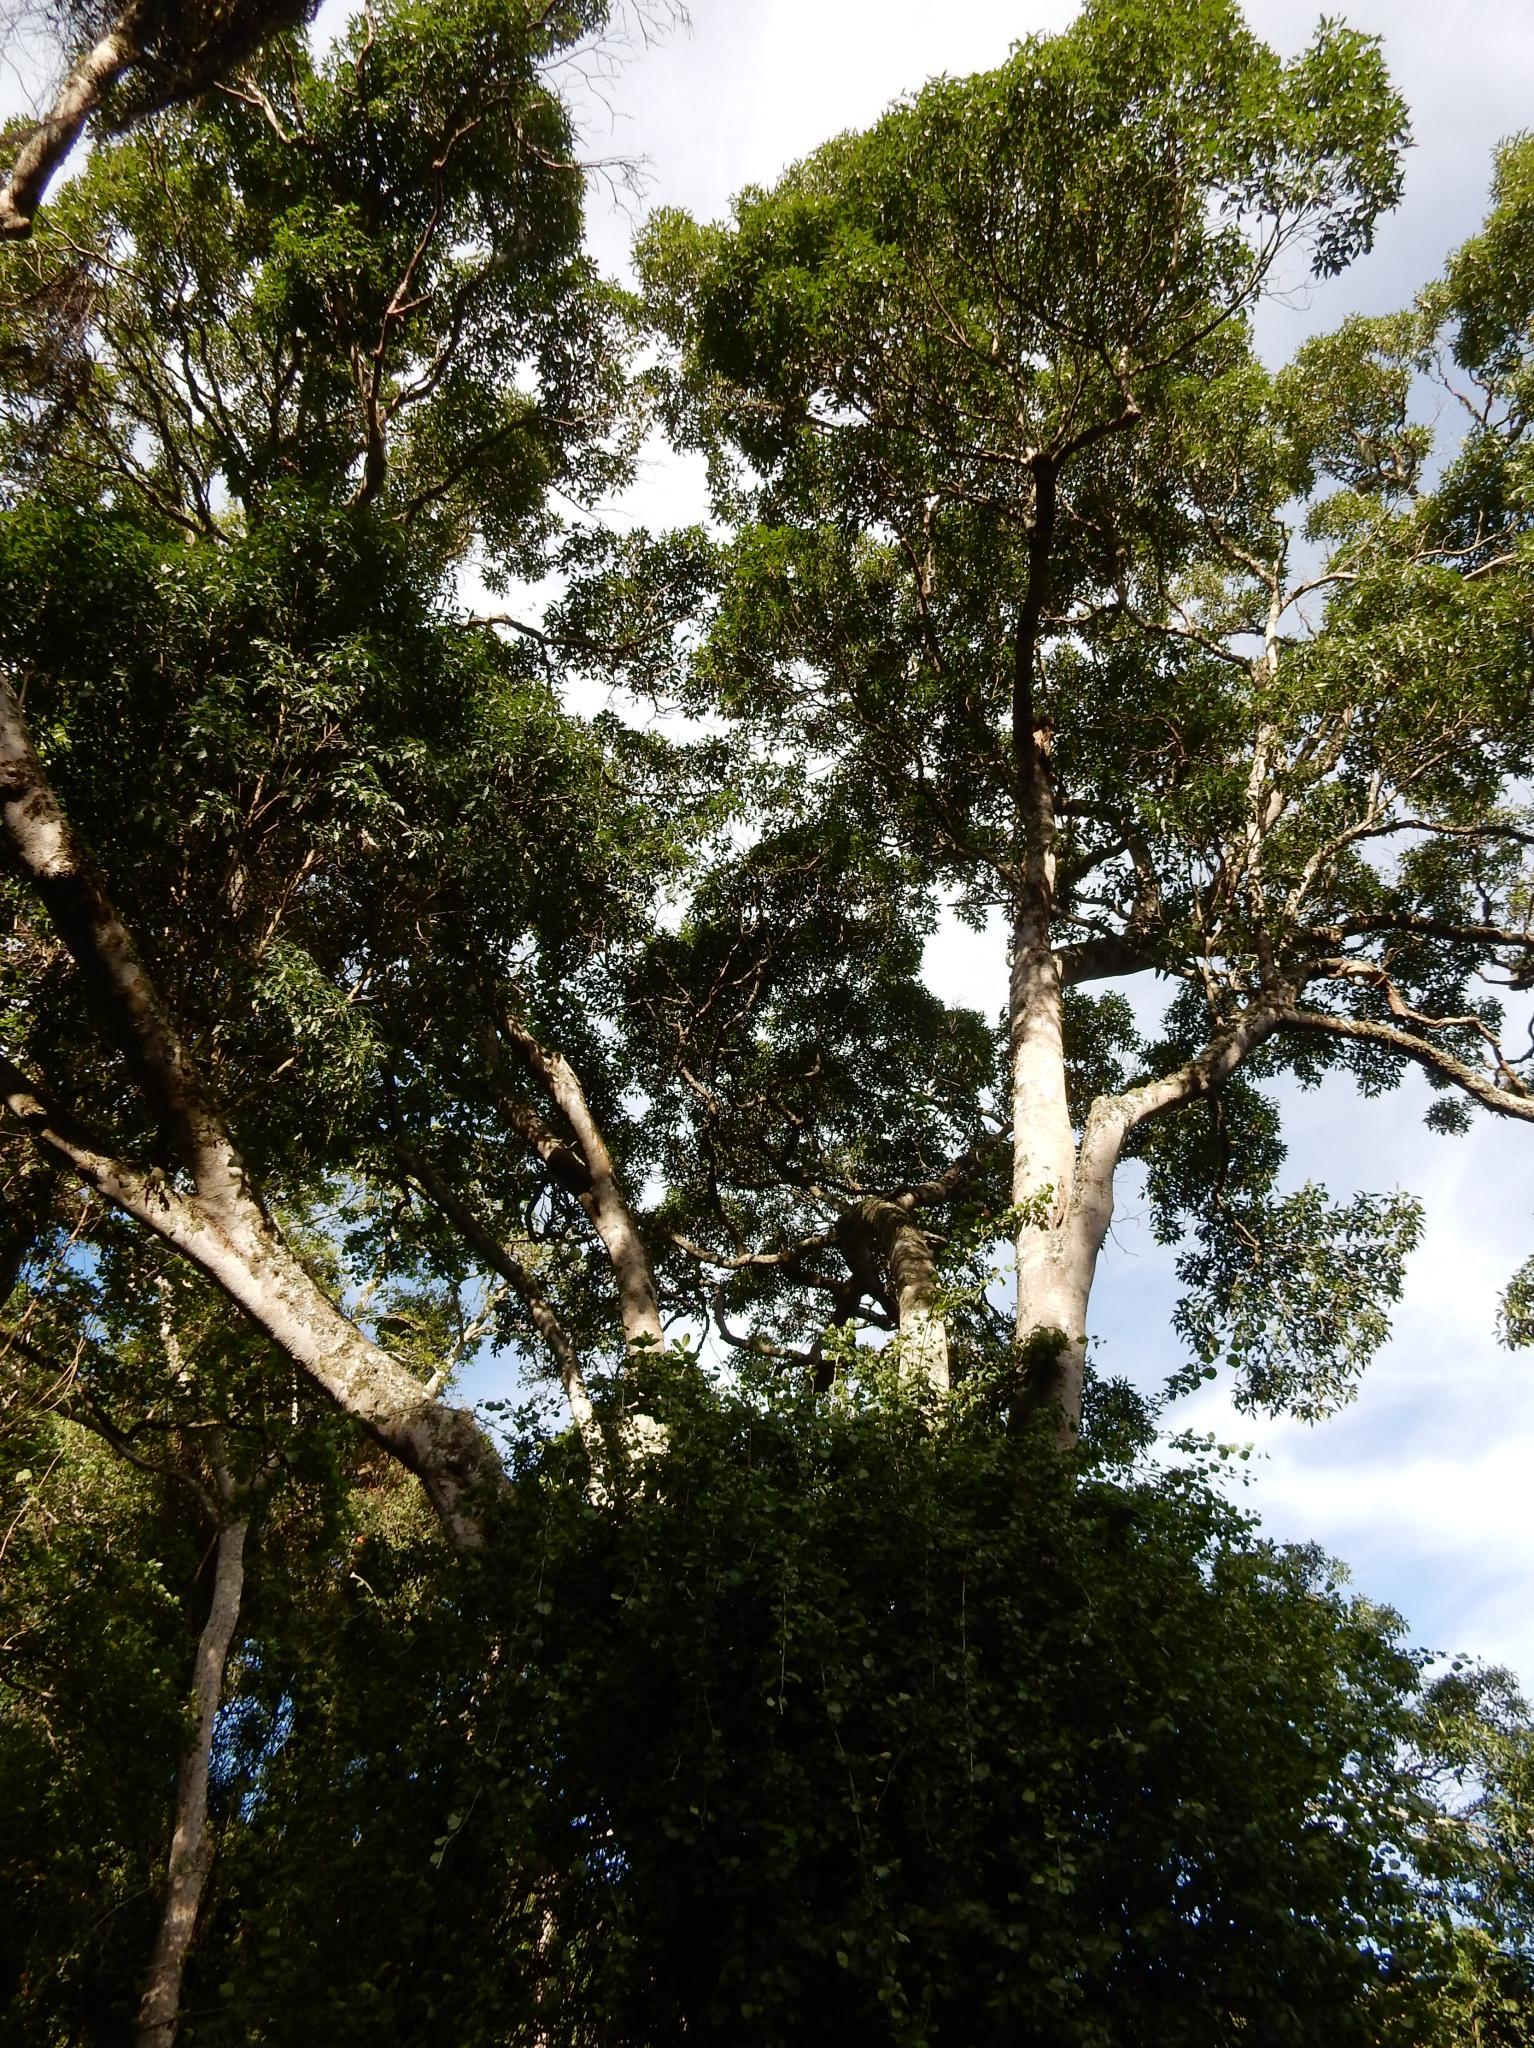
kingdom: Plantae
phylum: Tracheophyta
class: Magnoliopsida
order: Sapindales
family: Rutaceae
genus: Vepris
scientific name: Vepris lanceolata
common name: White ironwood
